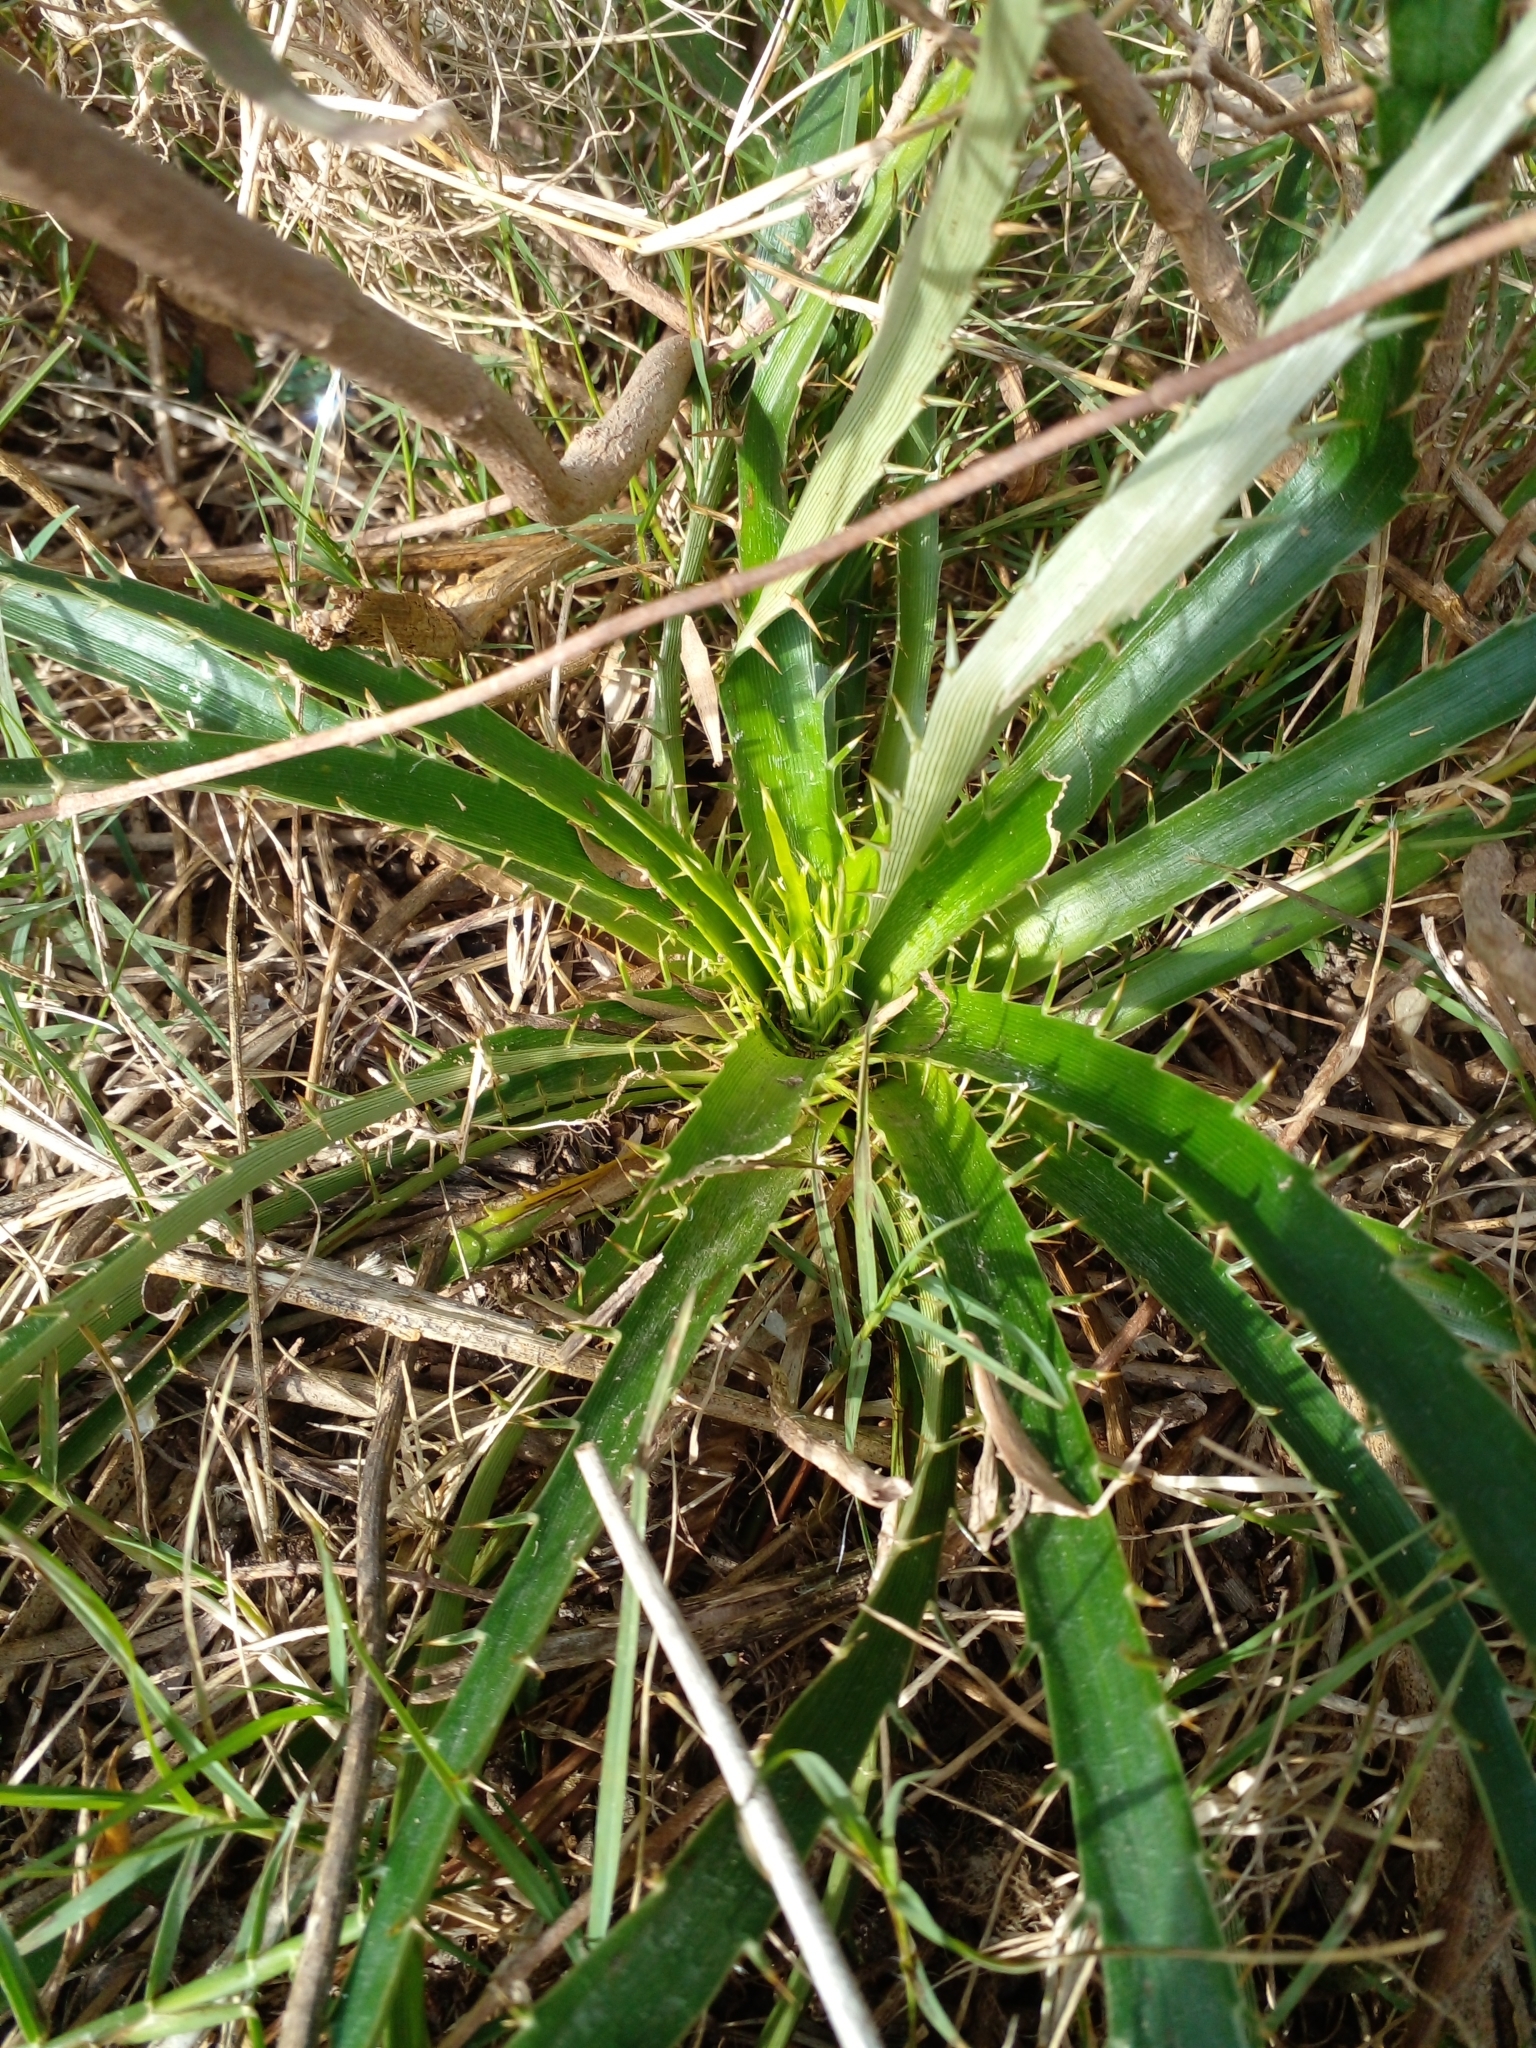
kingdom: Plantae
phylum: Tracheophyta
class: Magnoliopsida
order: Apiales
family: Apiaceae
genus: Eryngium
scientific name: Eryngium horridum
